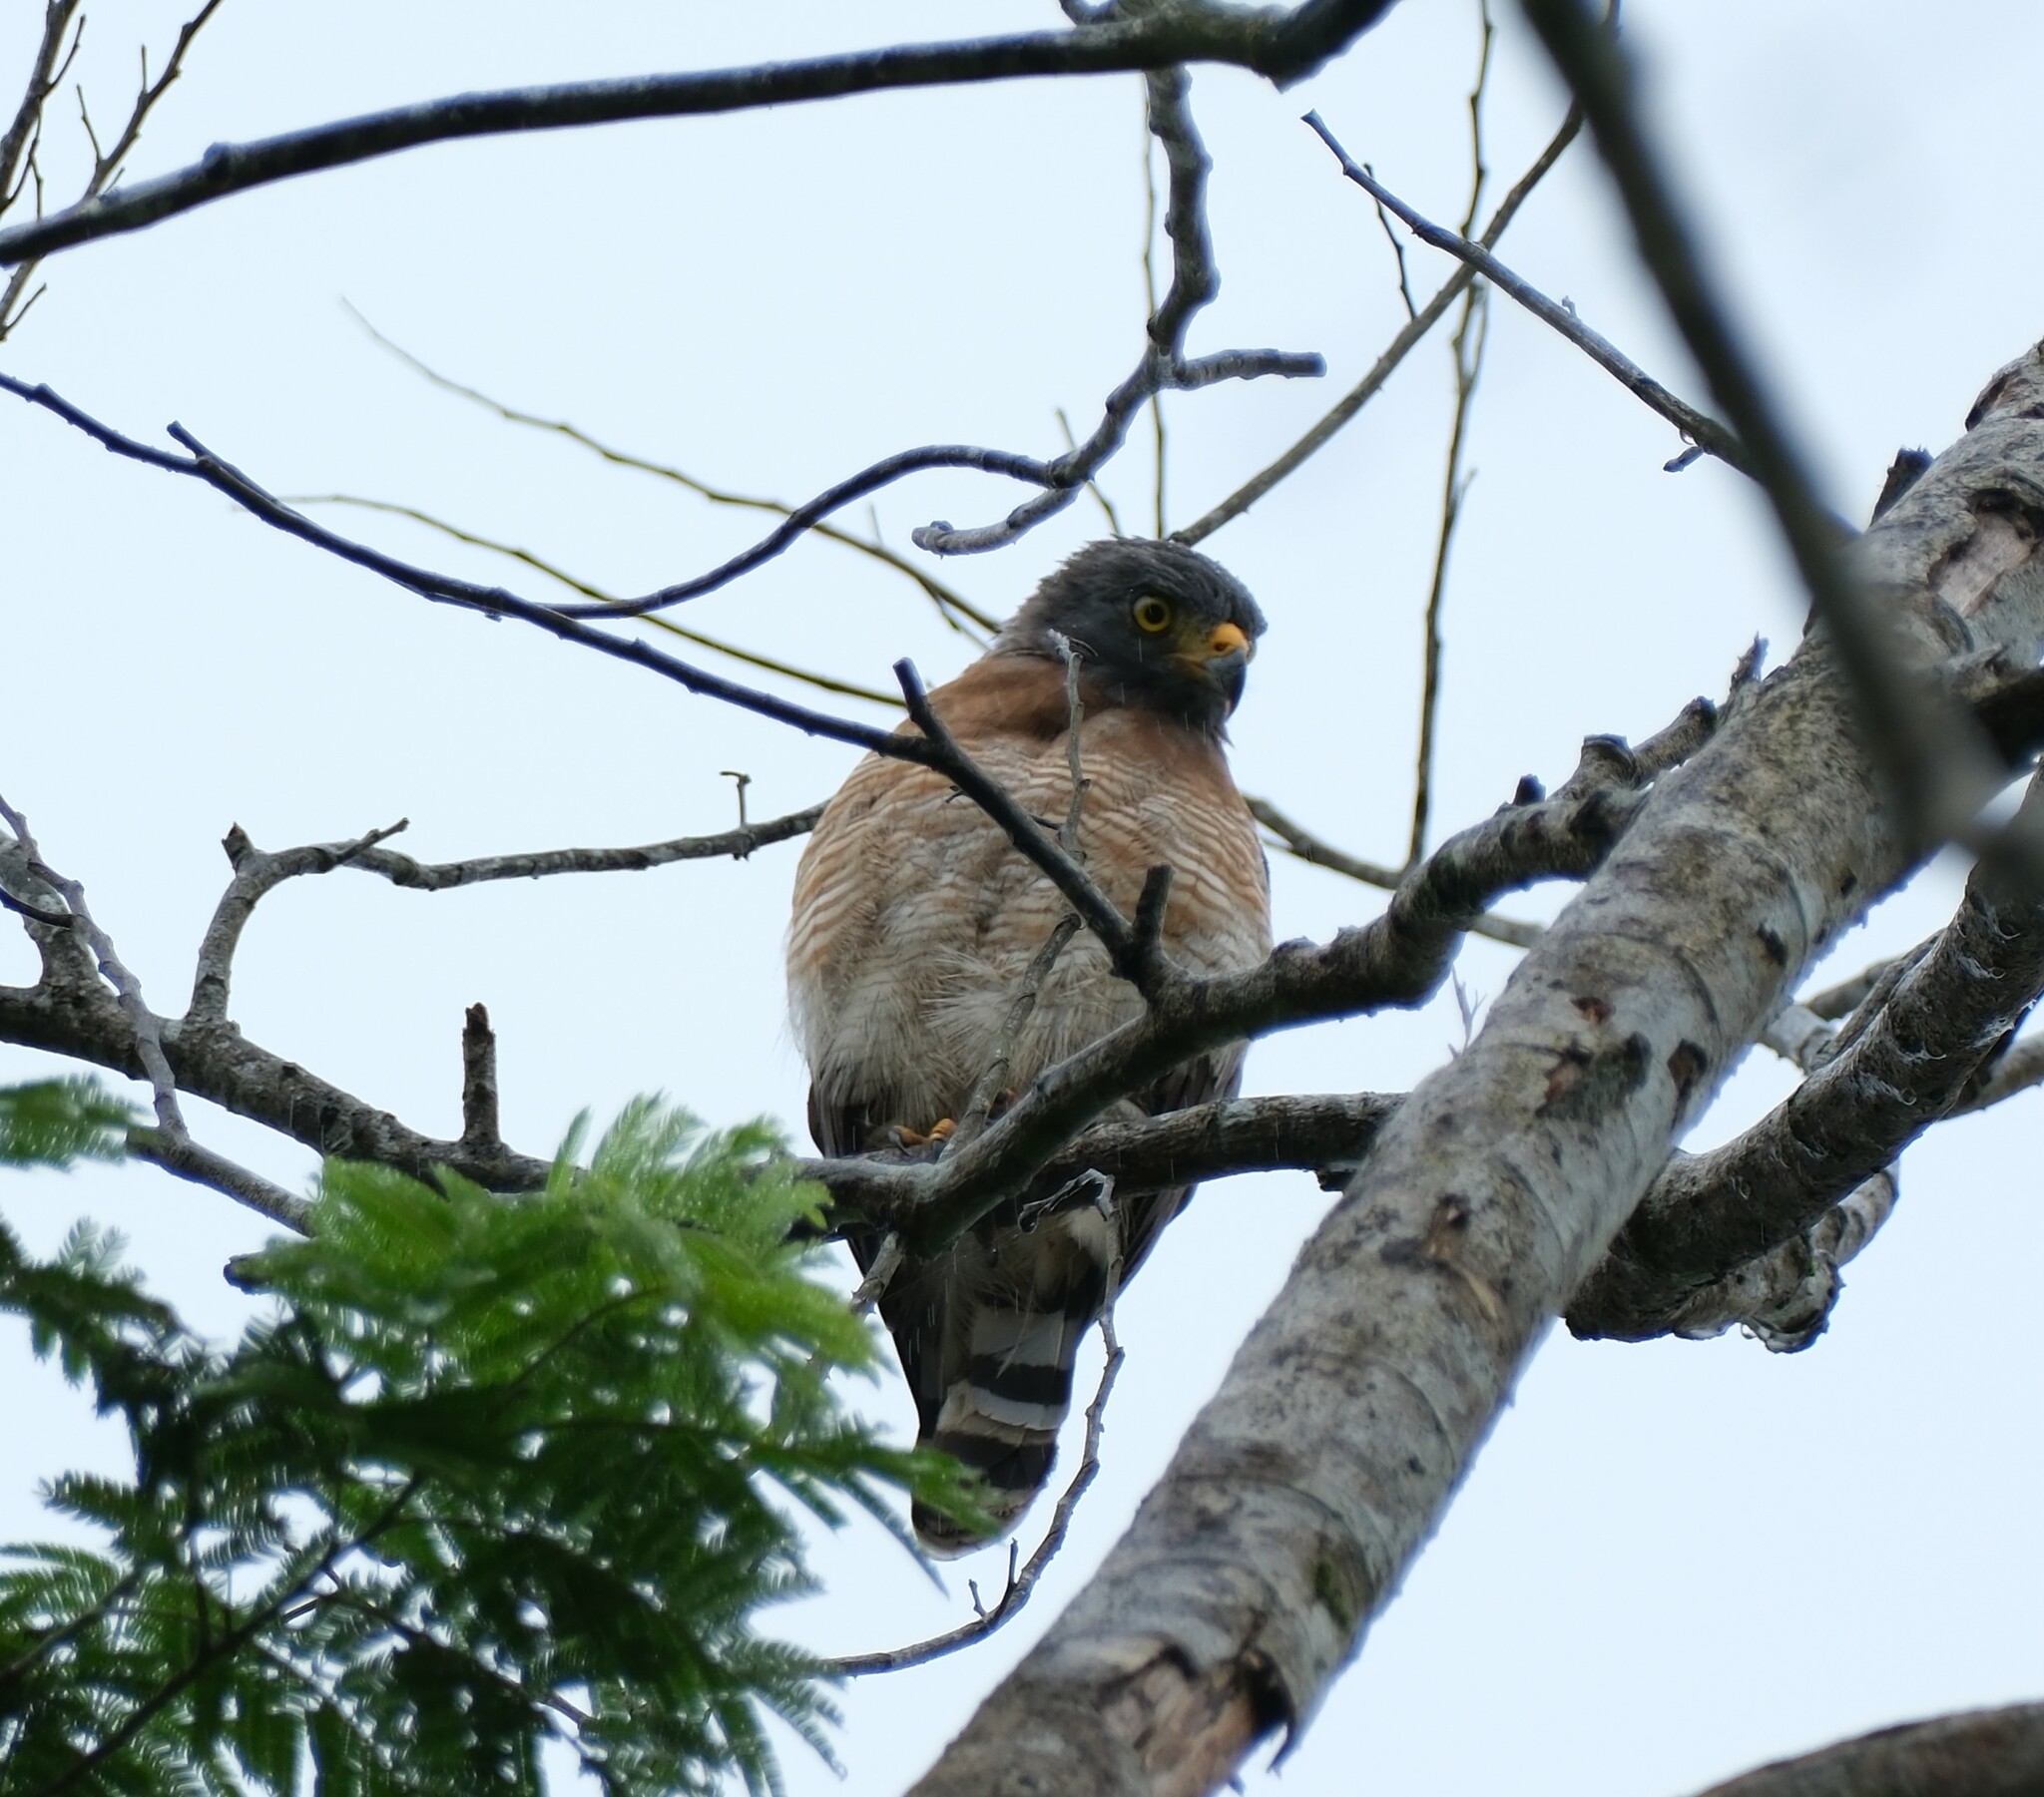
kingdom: Animalia
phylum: Chordata
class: Aves
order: Accipitriformes
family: Accipitridae
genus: Rupornis
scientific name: Rupornis magnirostris
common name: Roadside hawk
